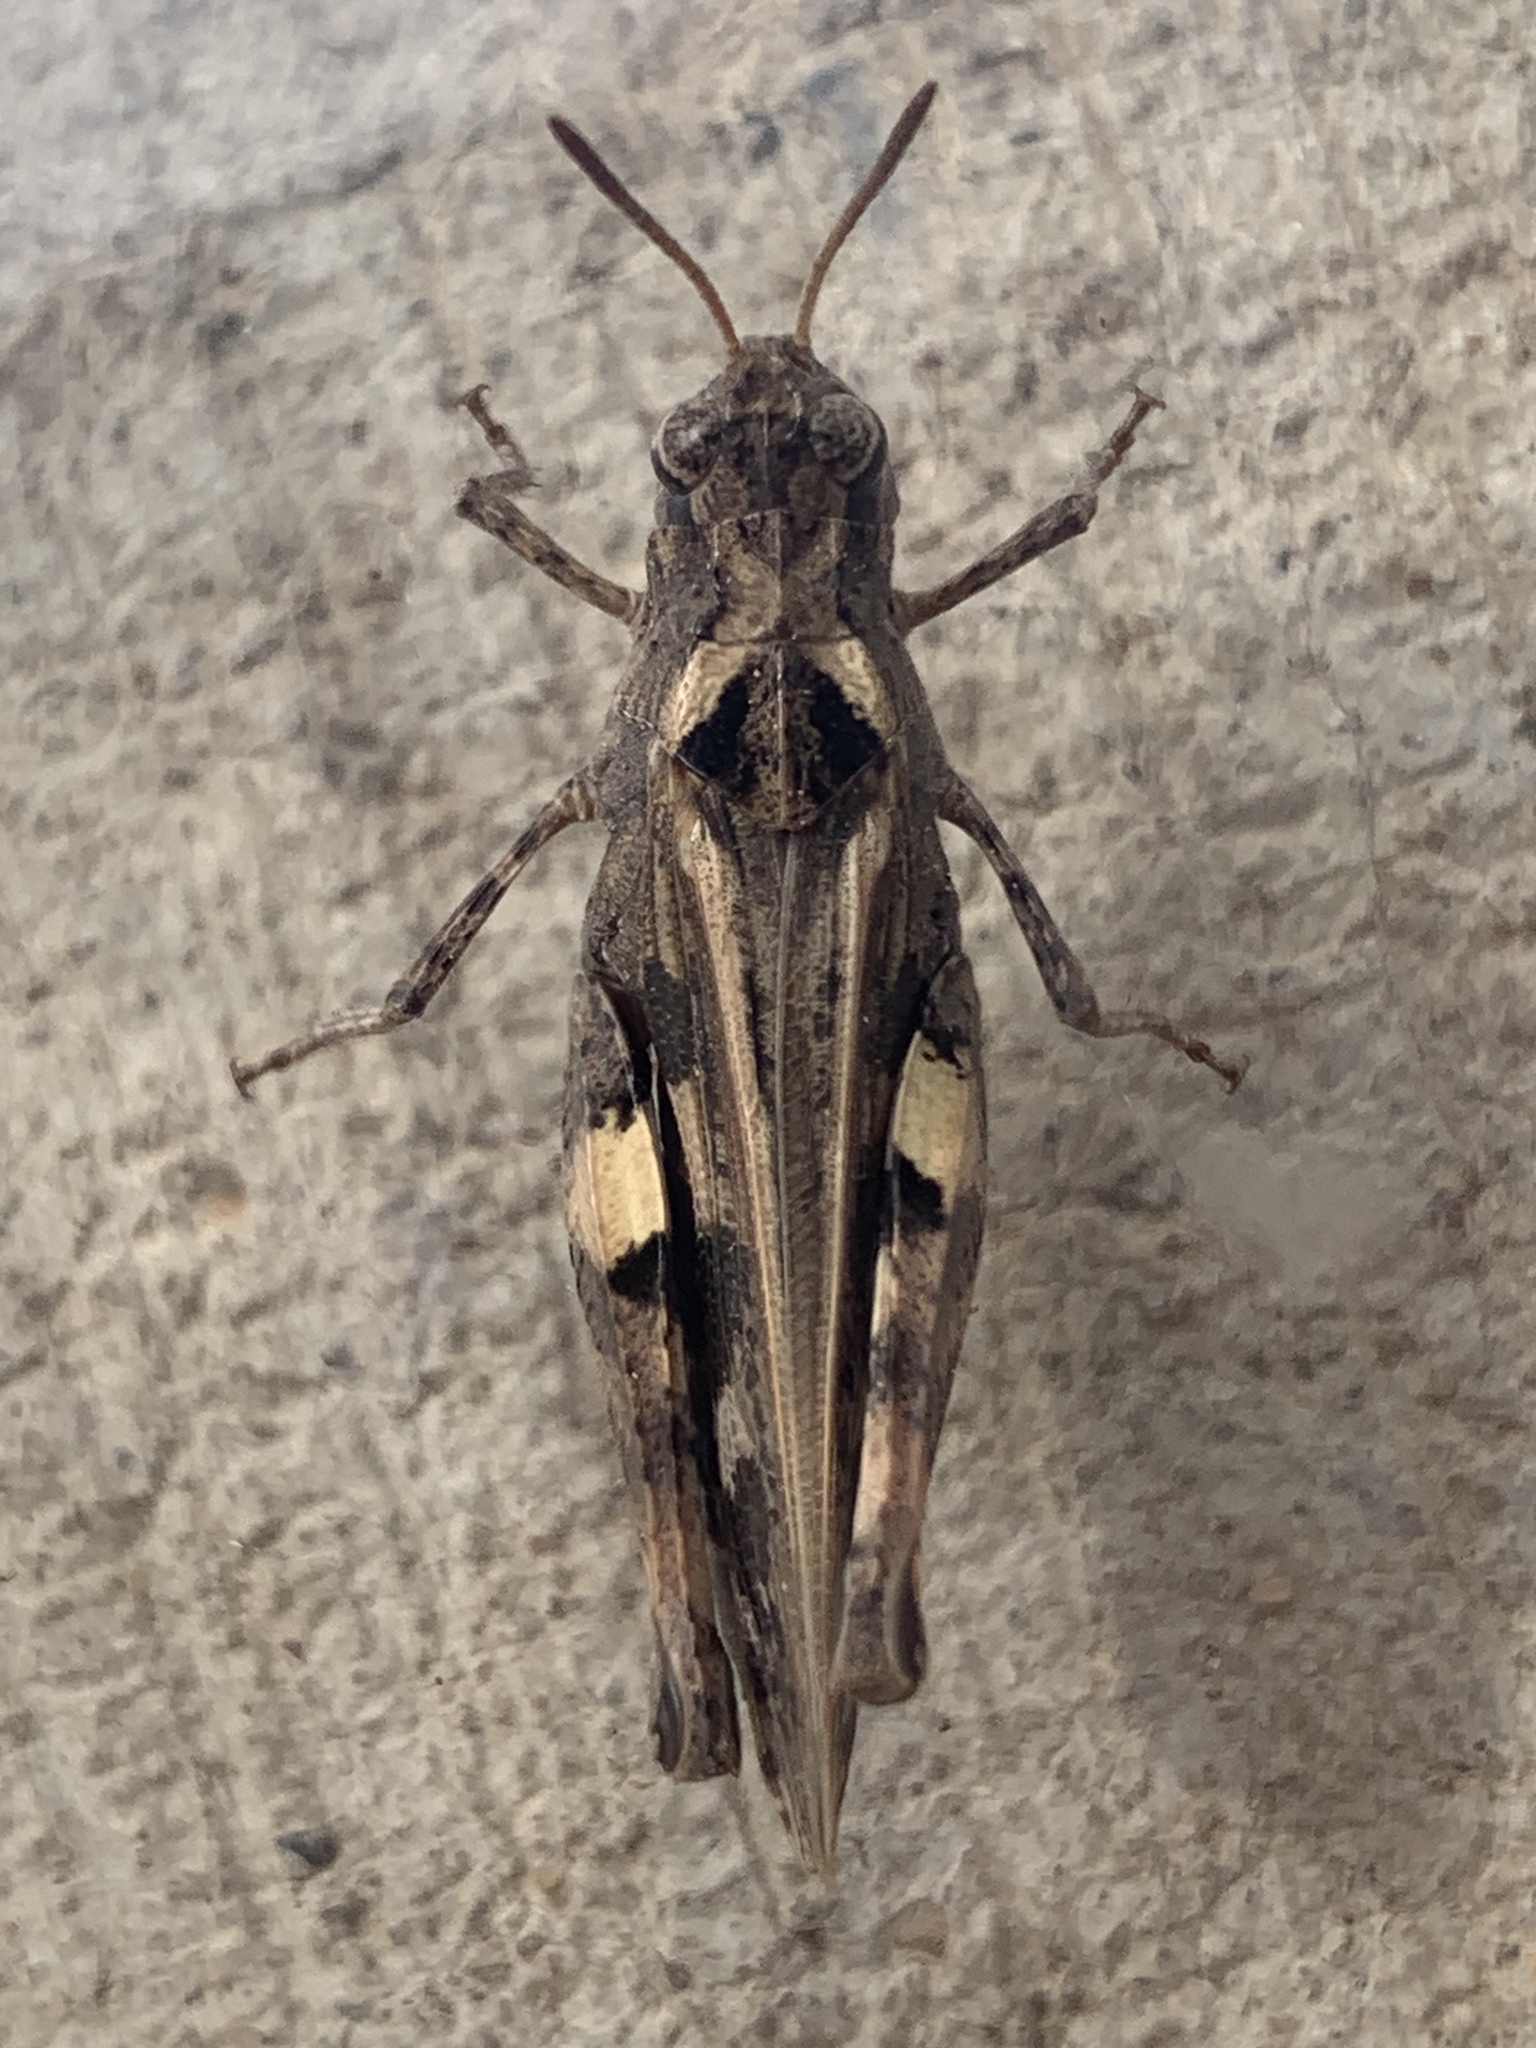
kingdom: Animalia
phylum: Arthropoda
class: Insecta
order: Orthoptera
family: Acrididae
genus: Encoptolophus
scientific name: Encoptolophus costalis
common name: Dusky grasshopper
